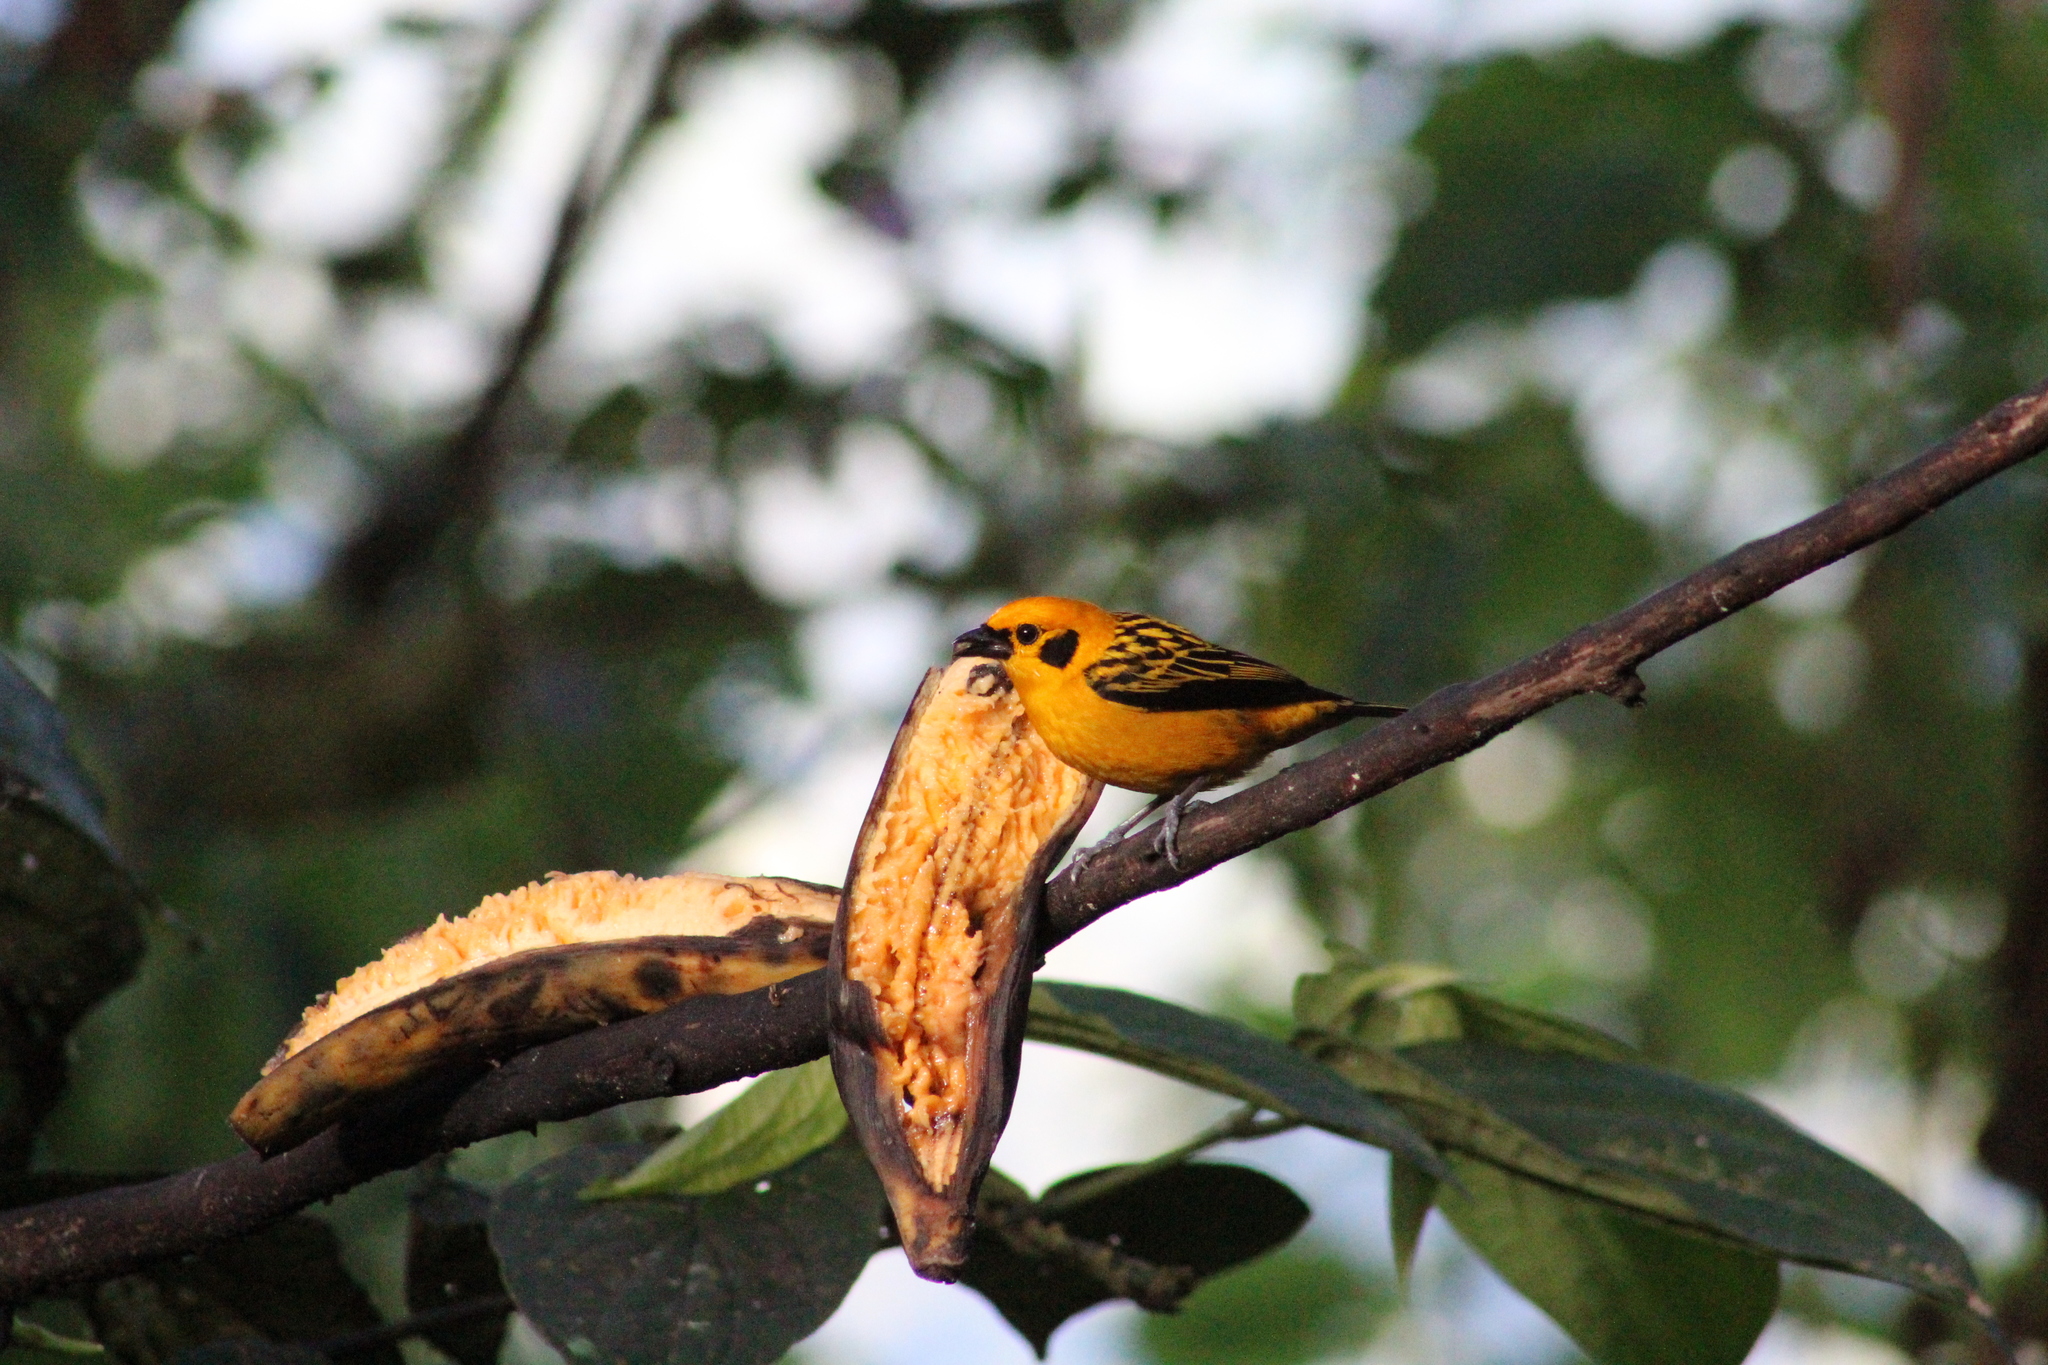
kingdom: Animalia
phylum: Chordata
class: Aves
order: Passeriformes
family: Thraupidae
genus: Tangara
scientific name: Tangara arthus
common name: Golden tanager
